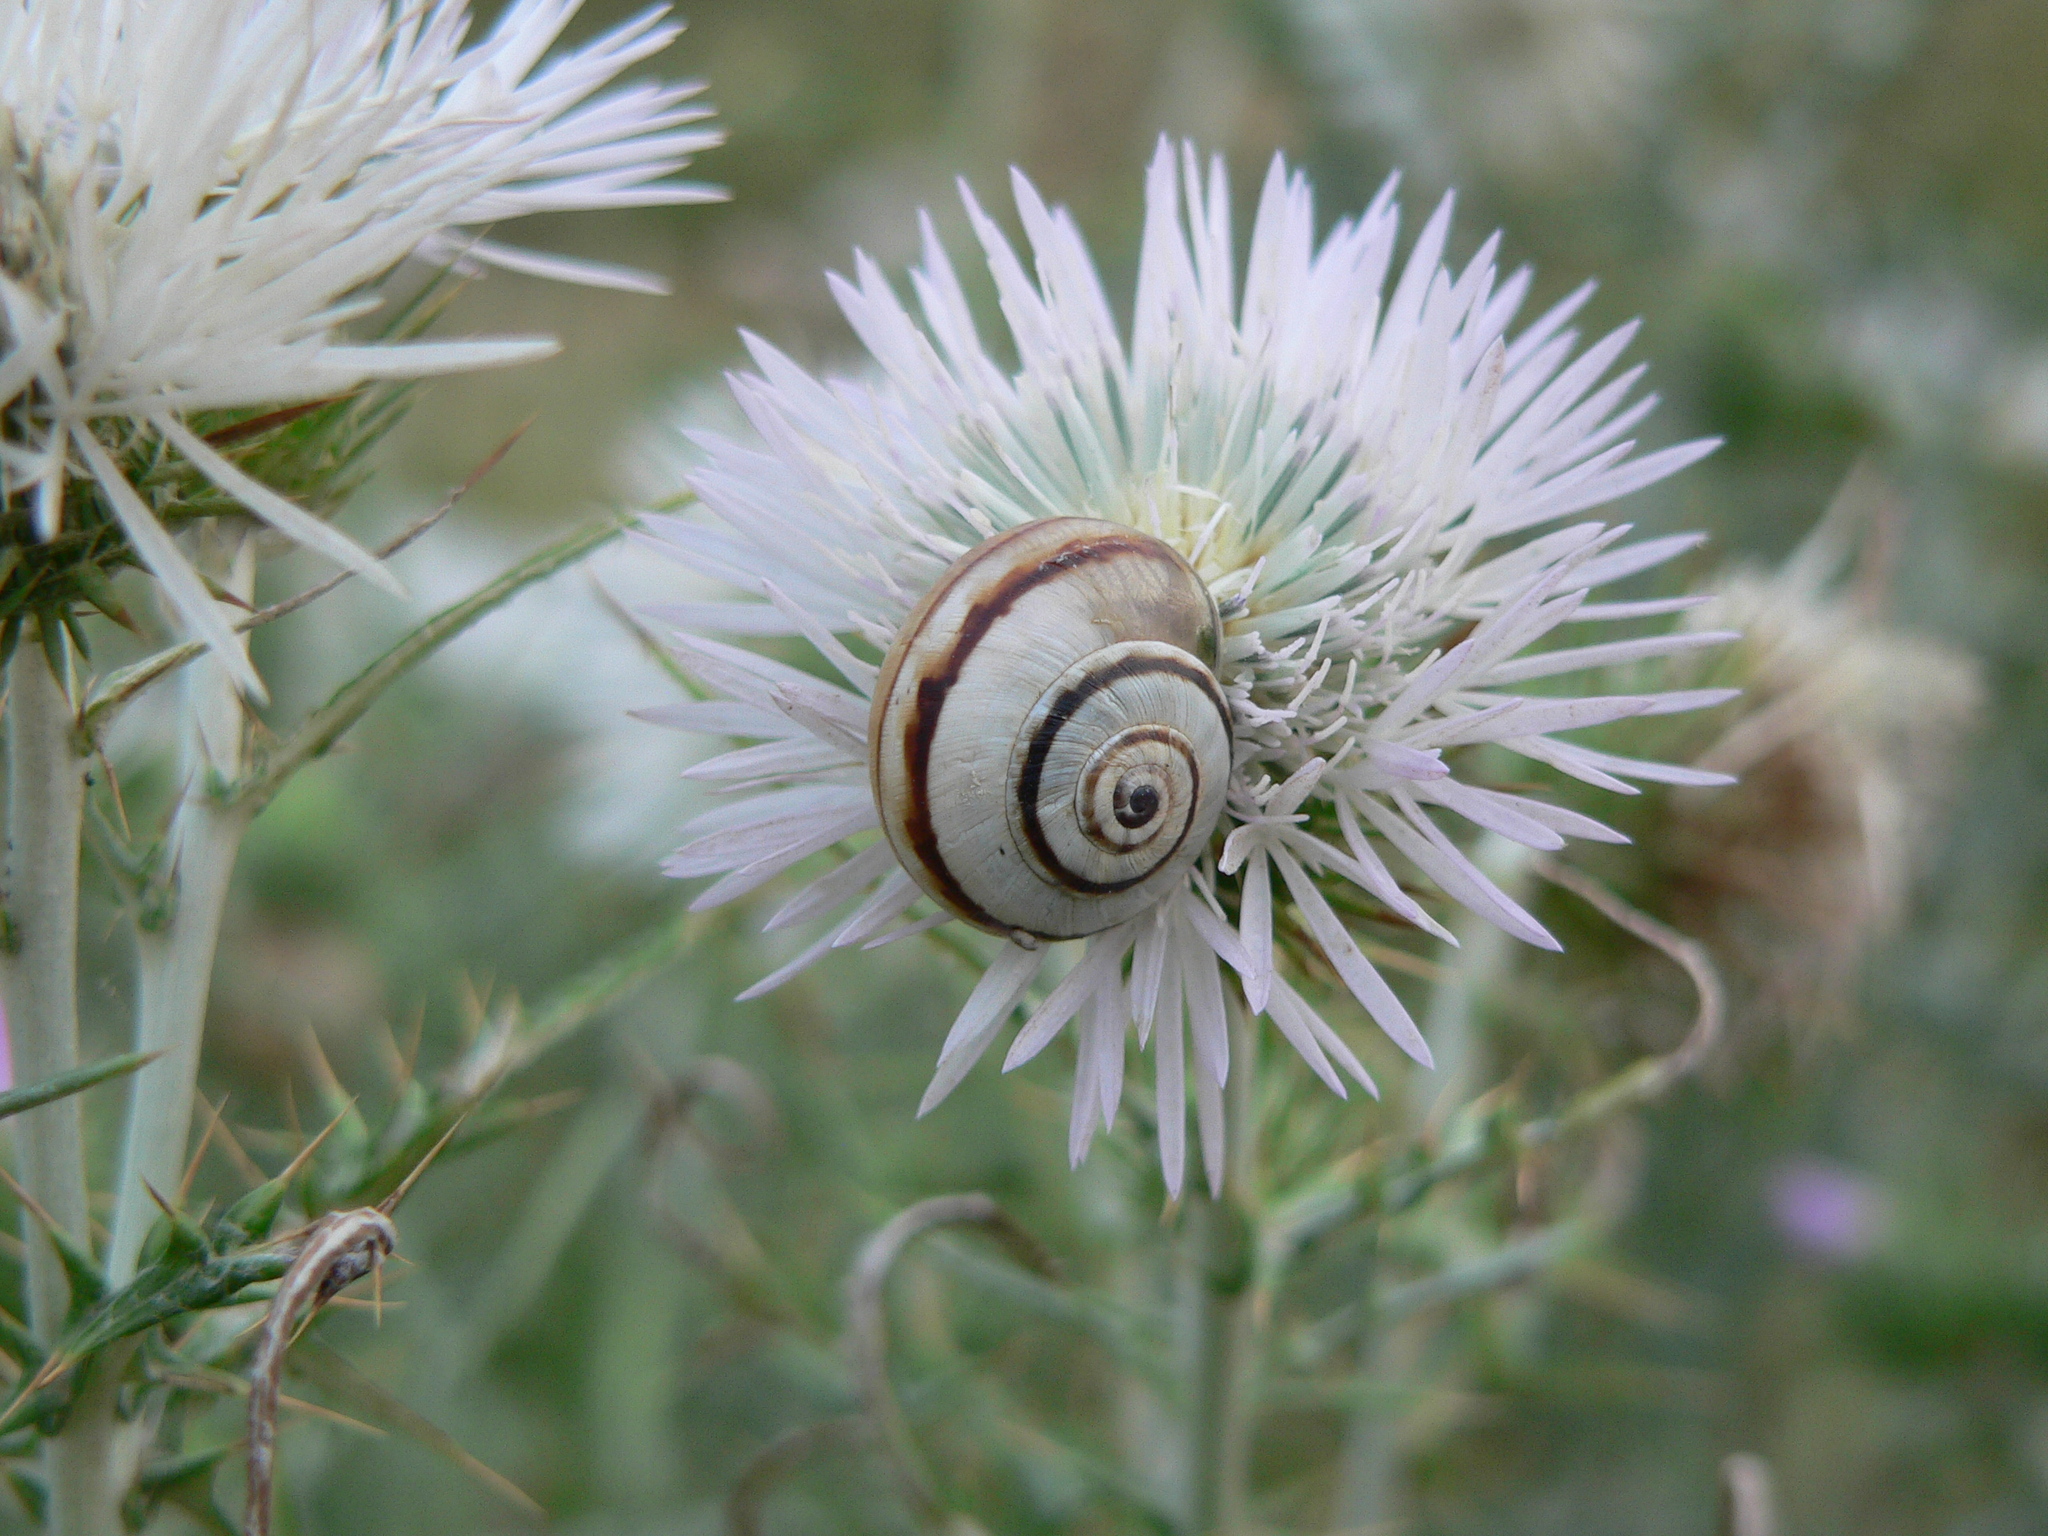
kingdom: Animalia
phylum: Mollusca
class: Gastropoda
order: Stylommatophora
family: Helicidae
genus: Theba
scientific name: Theba pisana
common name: White snail
